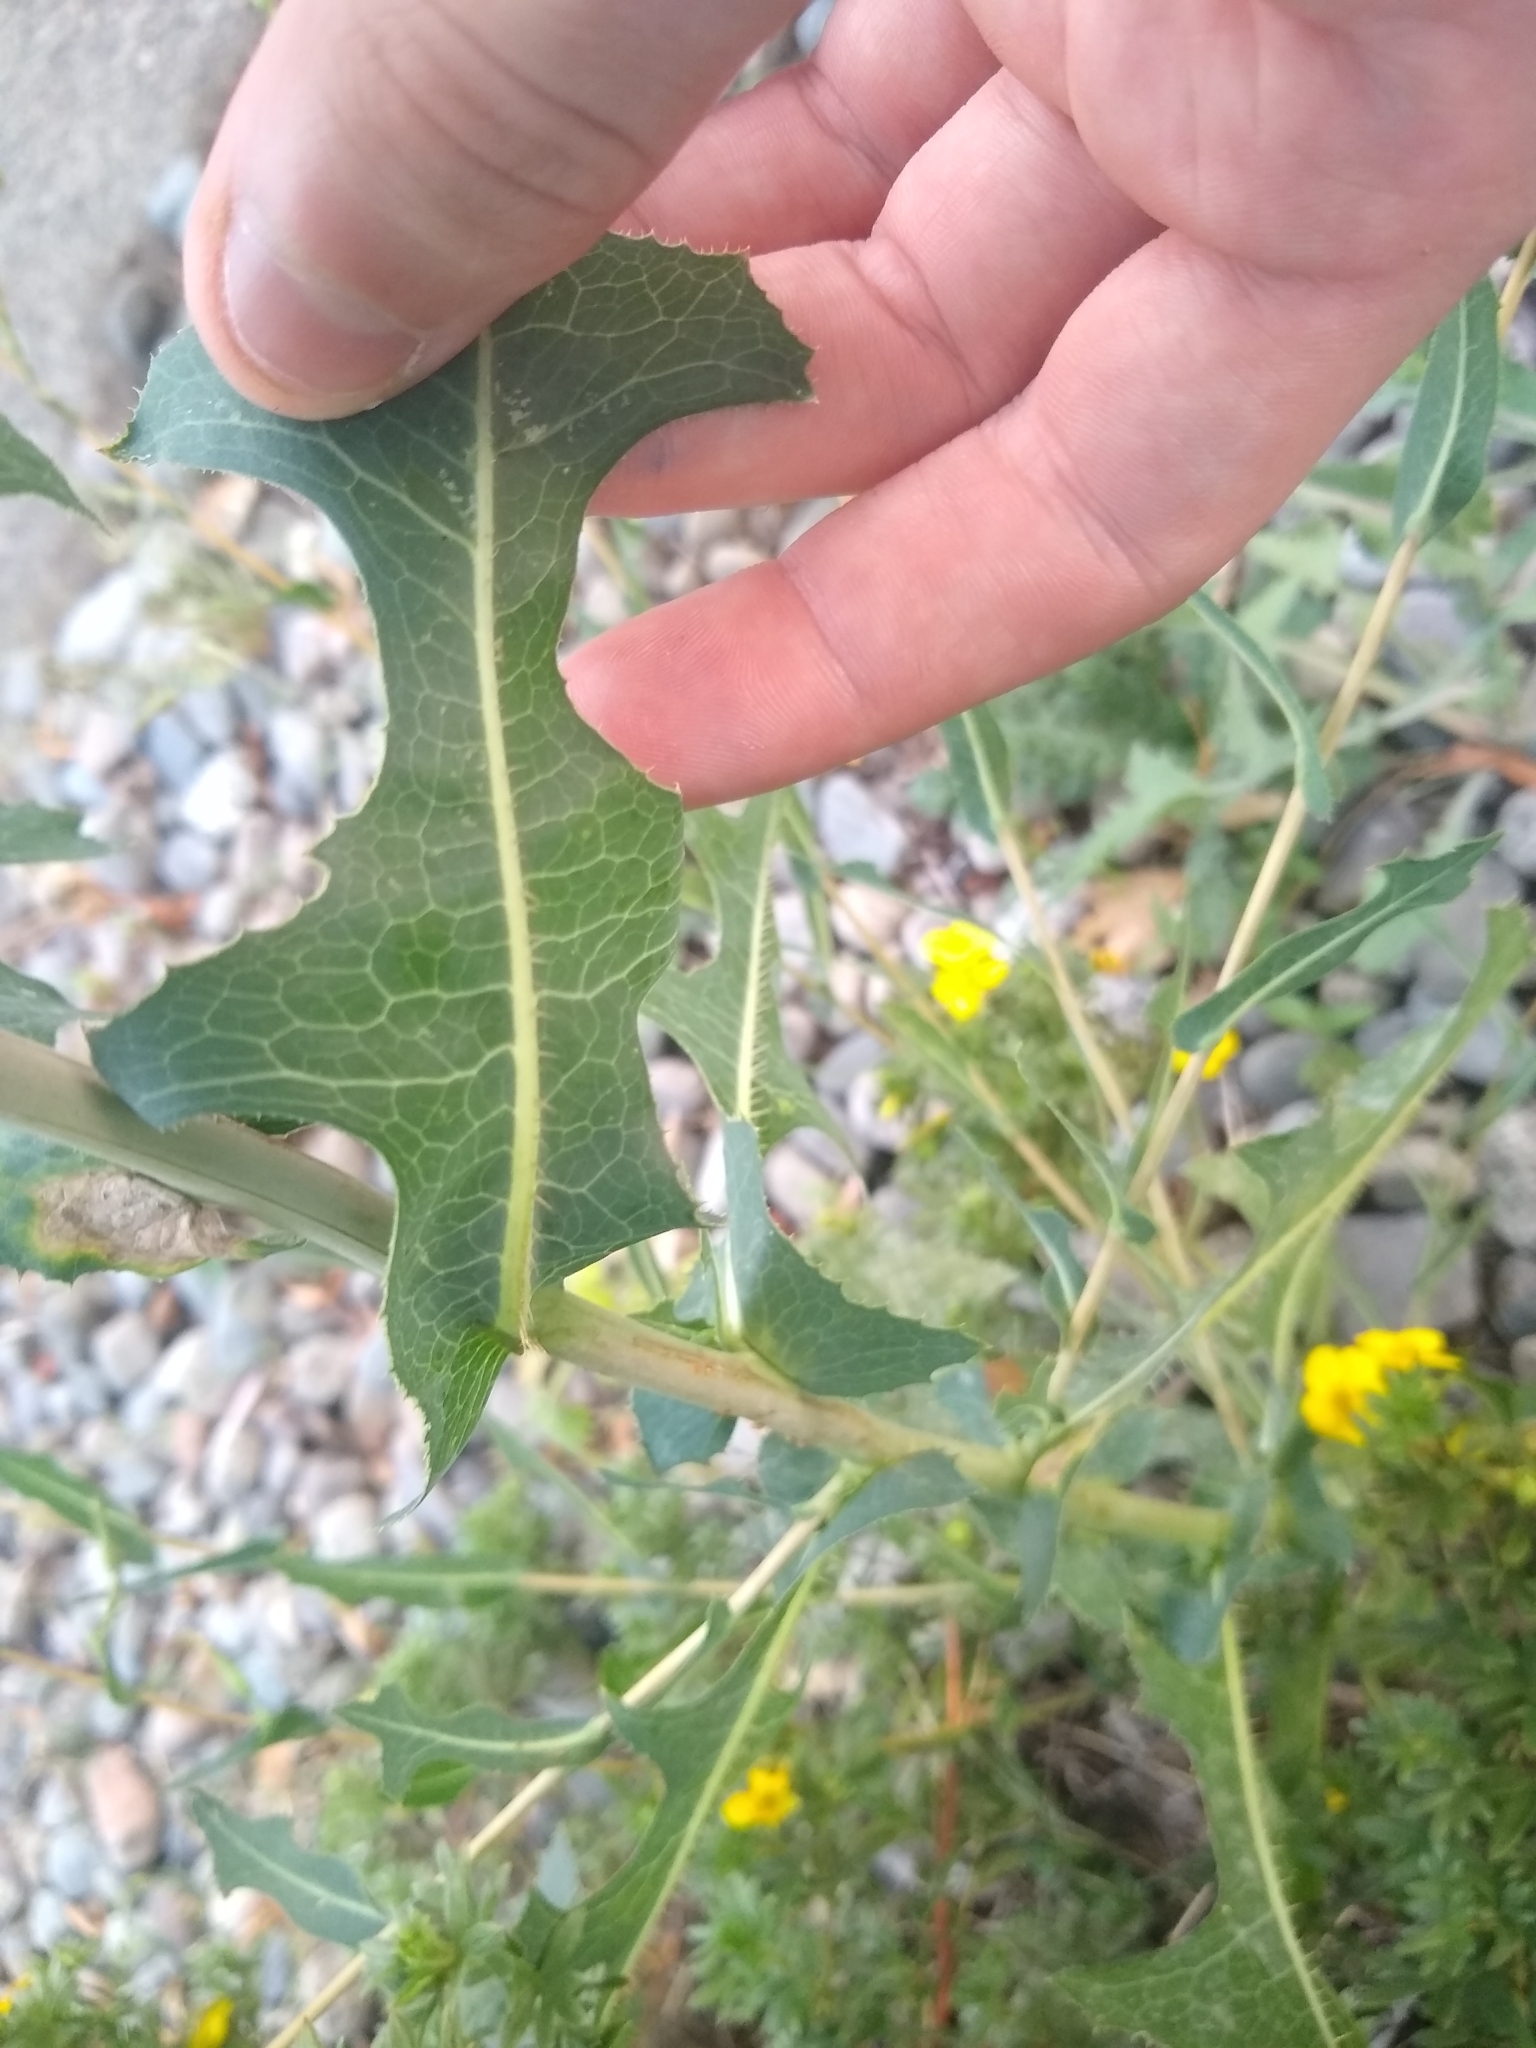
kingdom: Plantae
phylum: Tracheophyta
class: Magnoliopsida
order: Asterales
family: Asteraceae
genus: Lactuca
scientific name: Lactuca serriola
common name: Prickly lettuce
